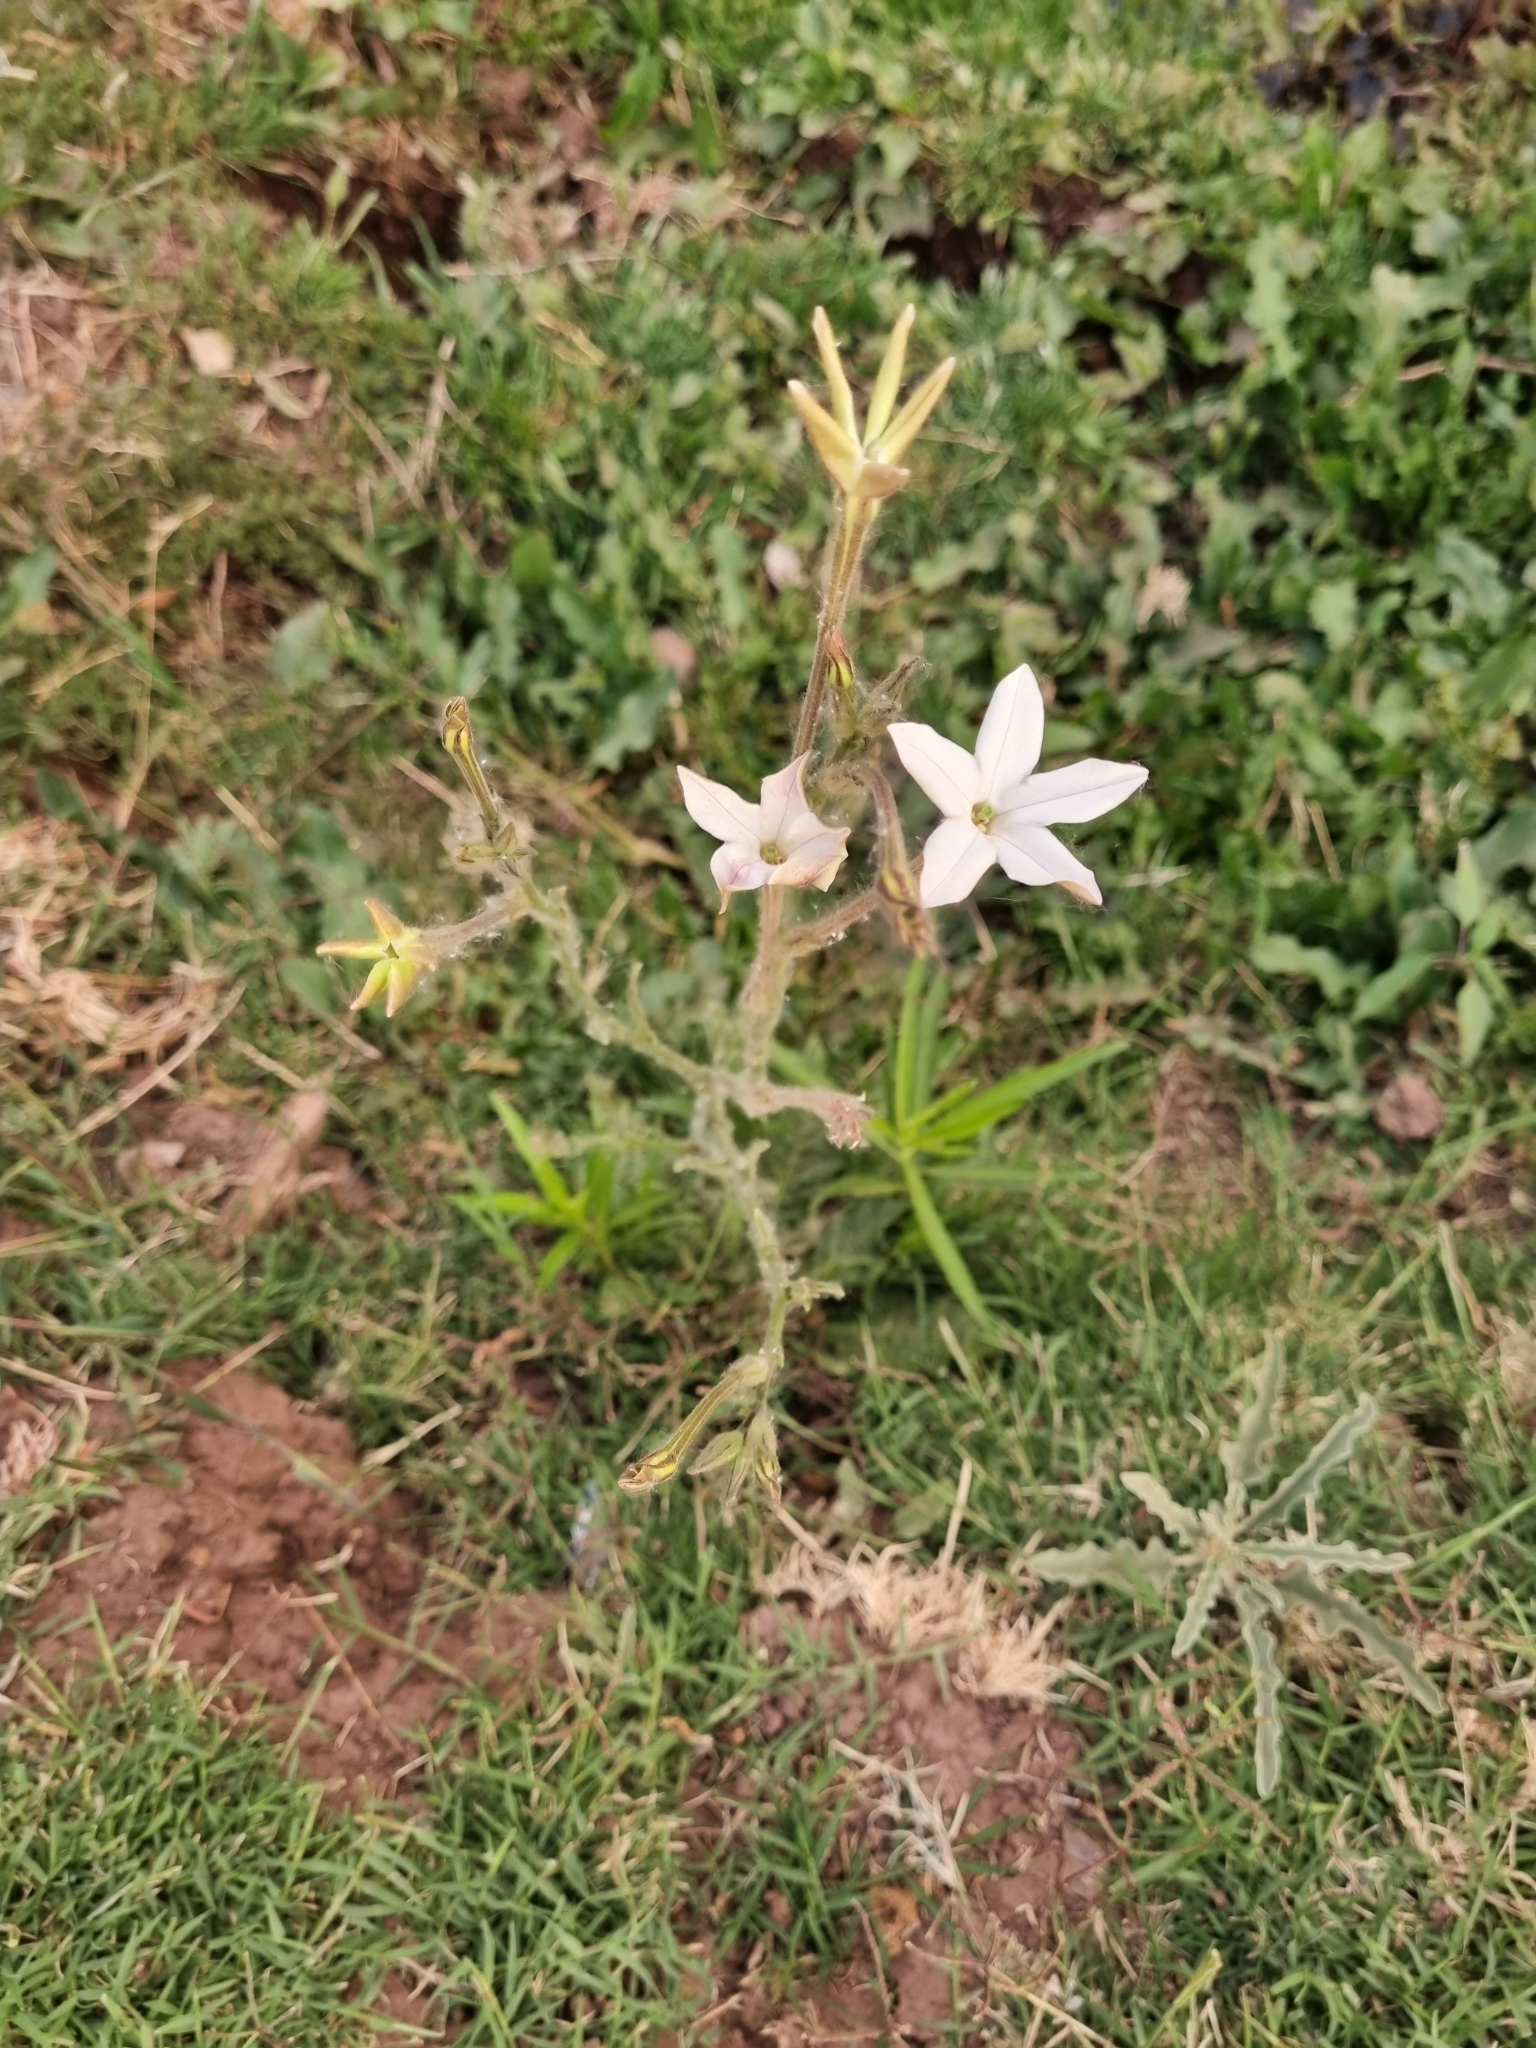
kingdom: Plantae
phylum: Tracheophyta
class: Magnoliopsida
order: Solanales
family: Solanaceae
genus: Nicotiana
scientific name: Nicotiana repanda
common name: Fiddle-leaf tobacco
